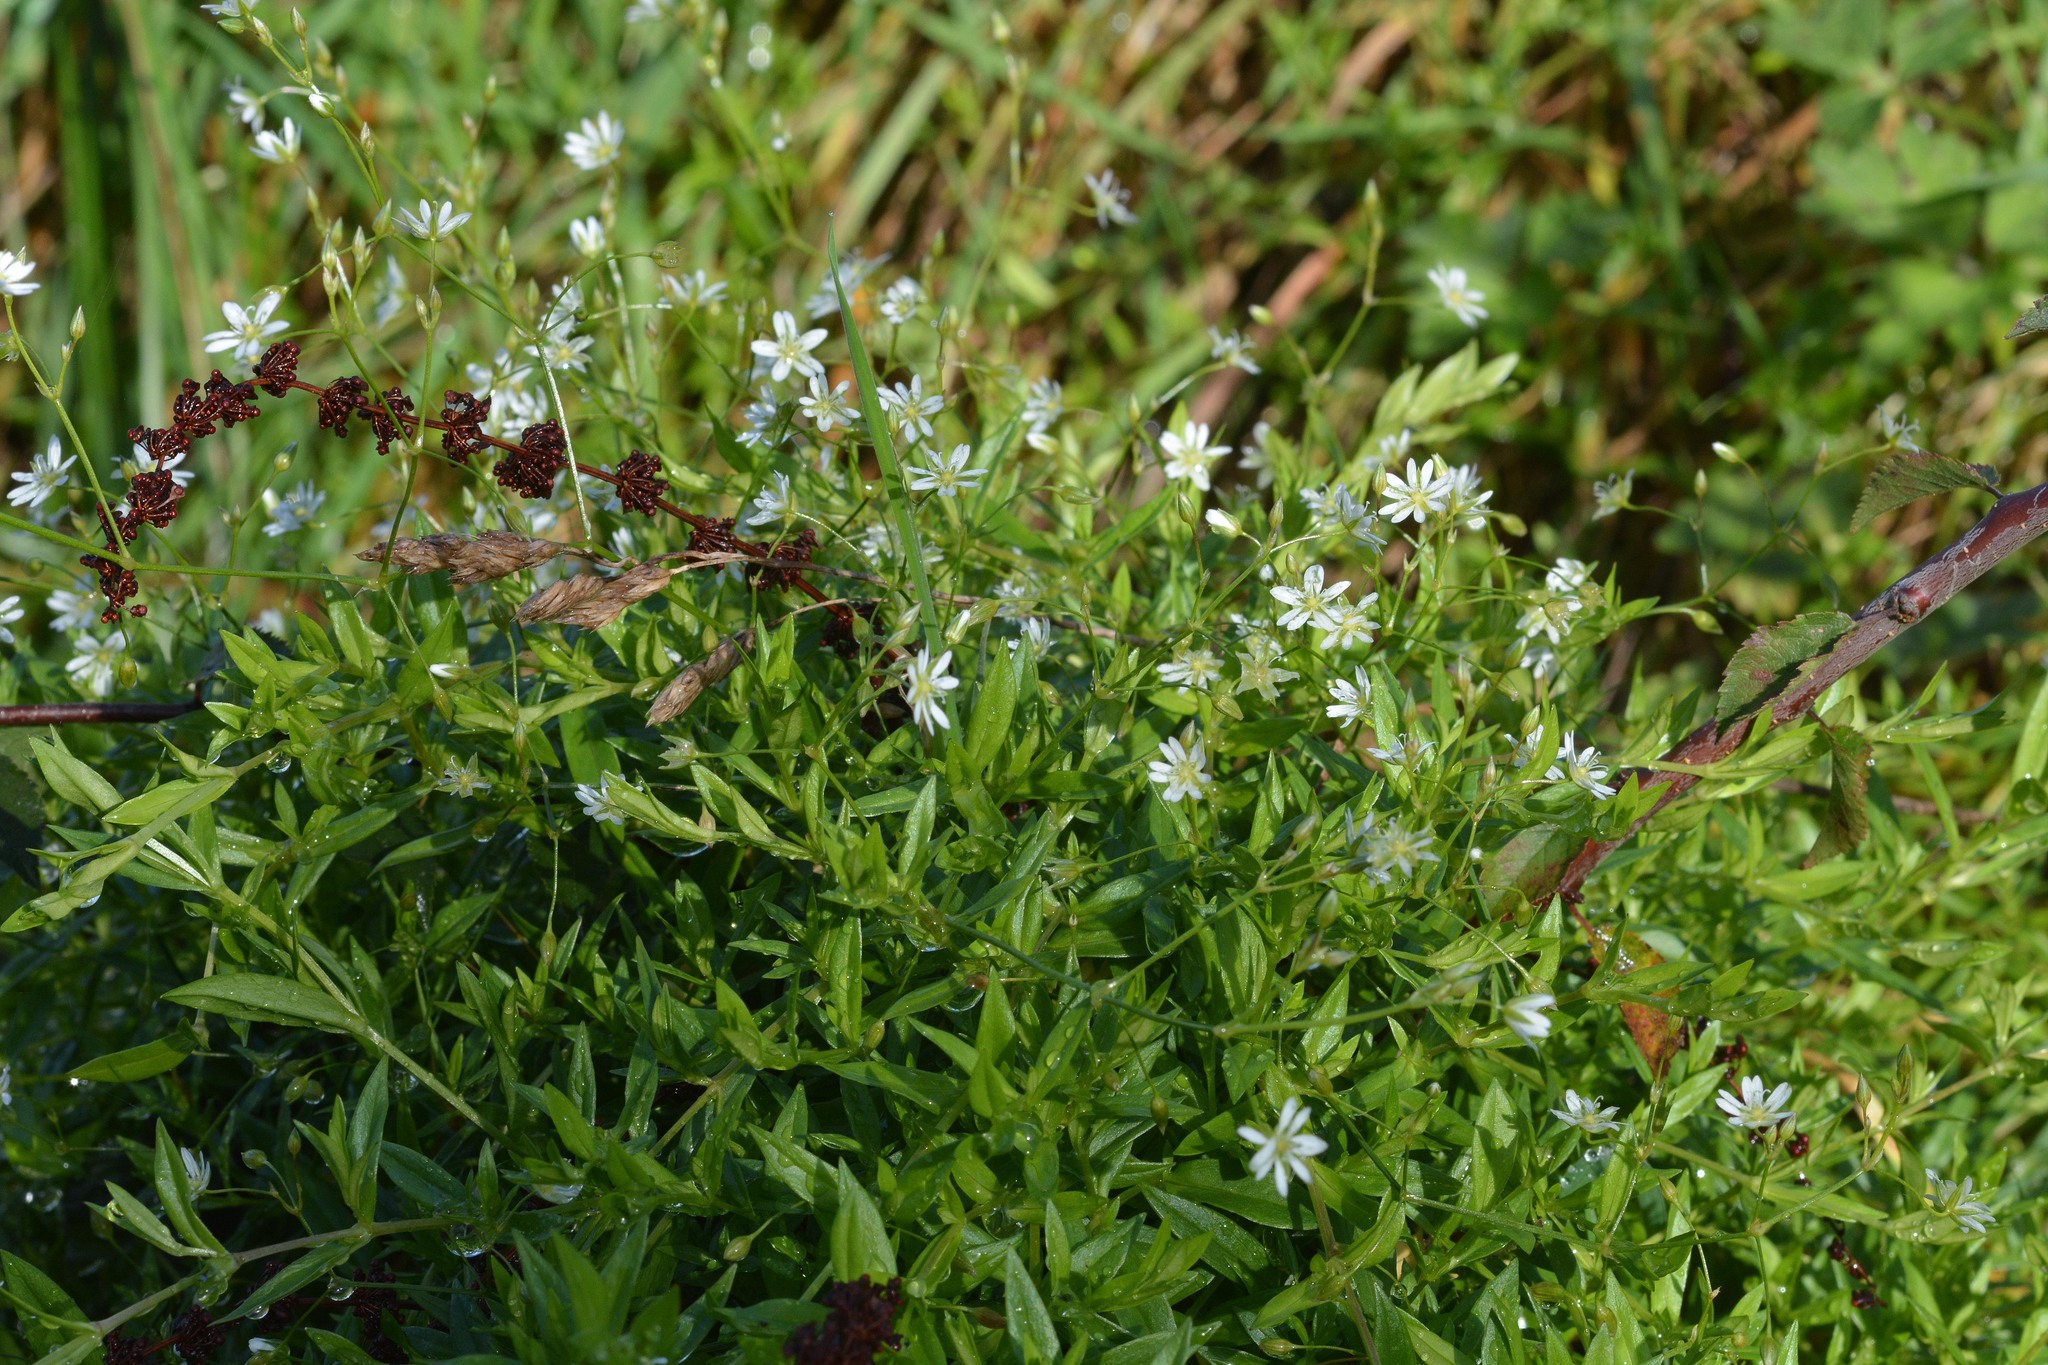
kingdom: Plantae
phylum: Tracheophyta
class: Magnoliopsida
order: Caryophyllales
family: Caryophyllaceae
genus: Stellaria
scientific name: Stellaria graminea
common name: Grass-like starwort
